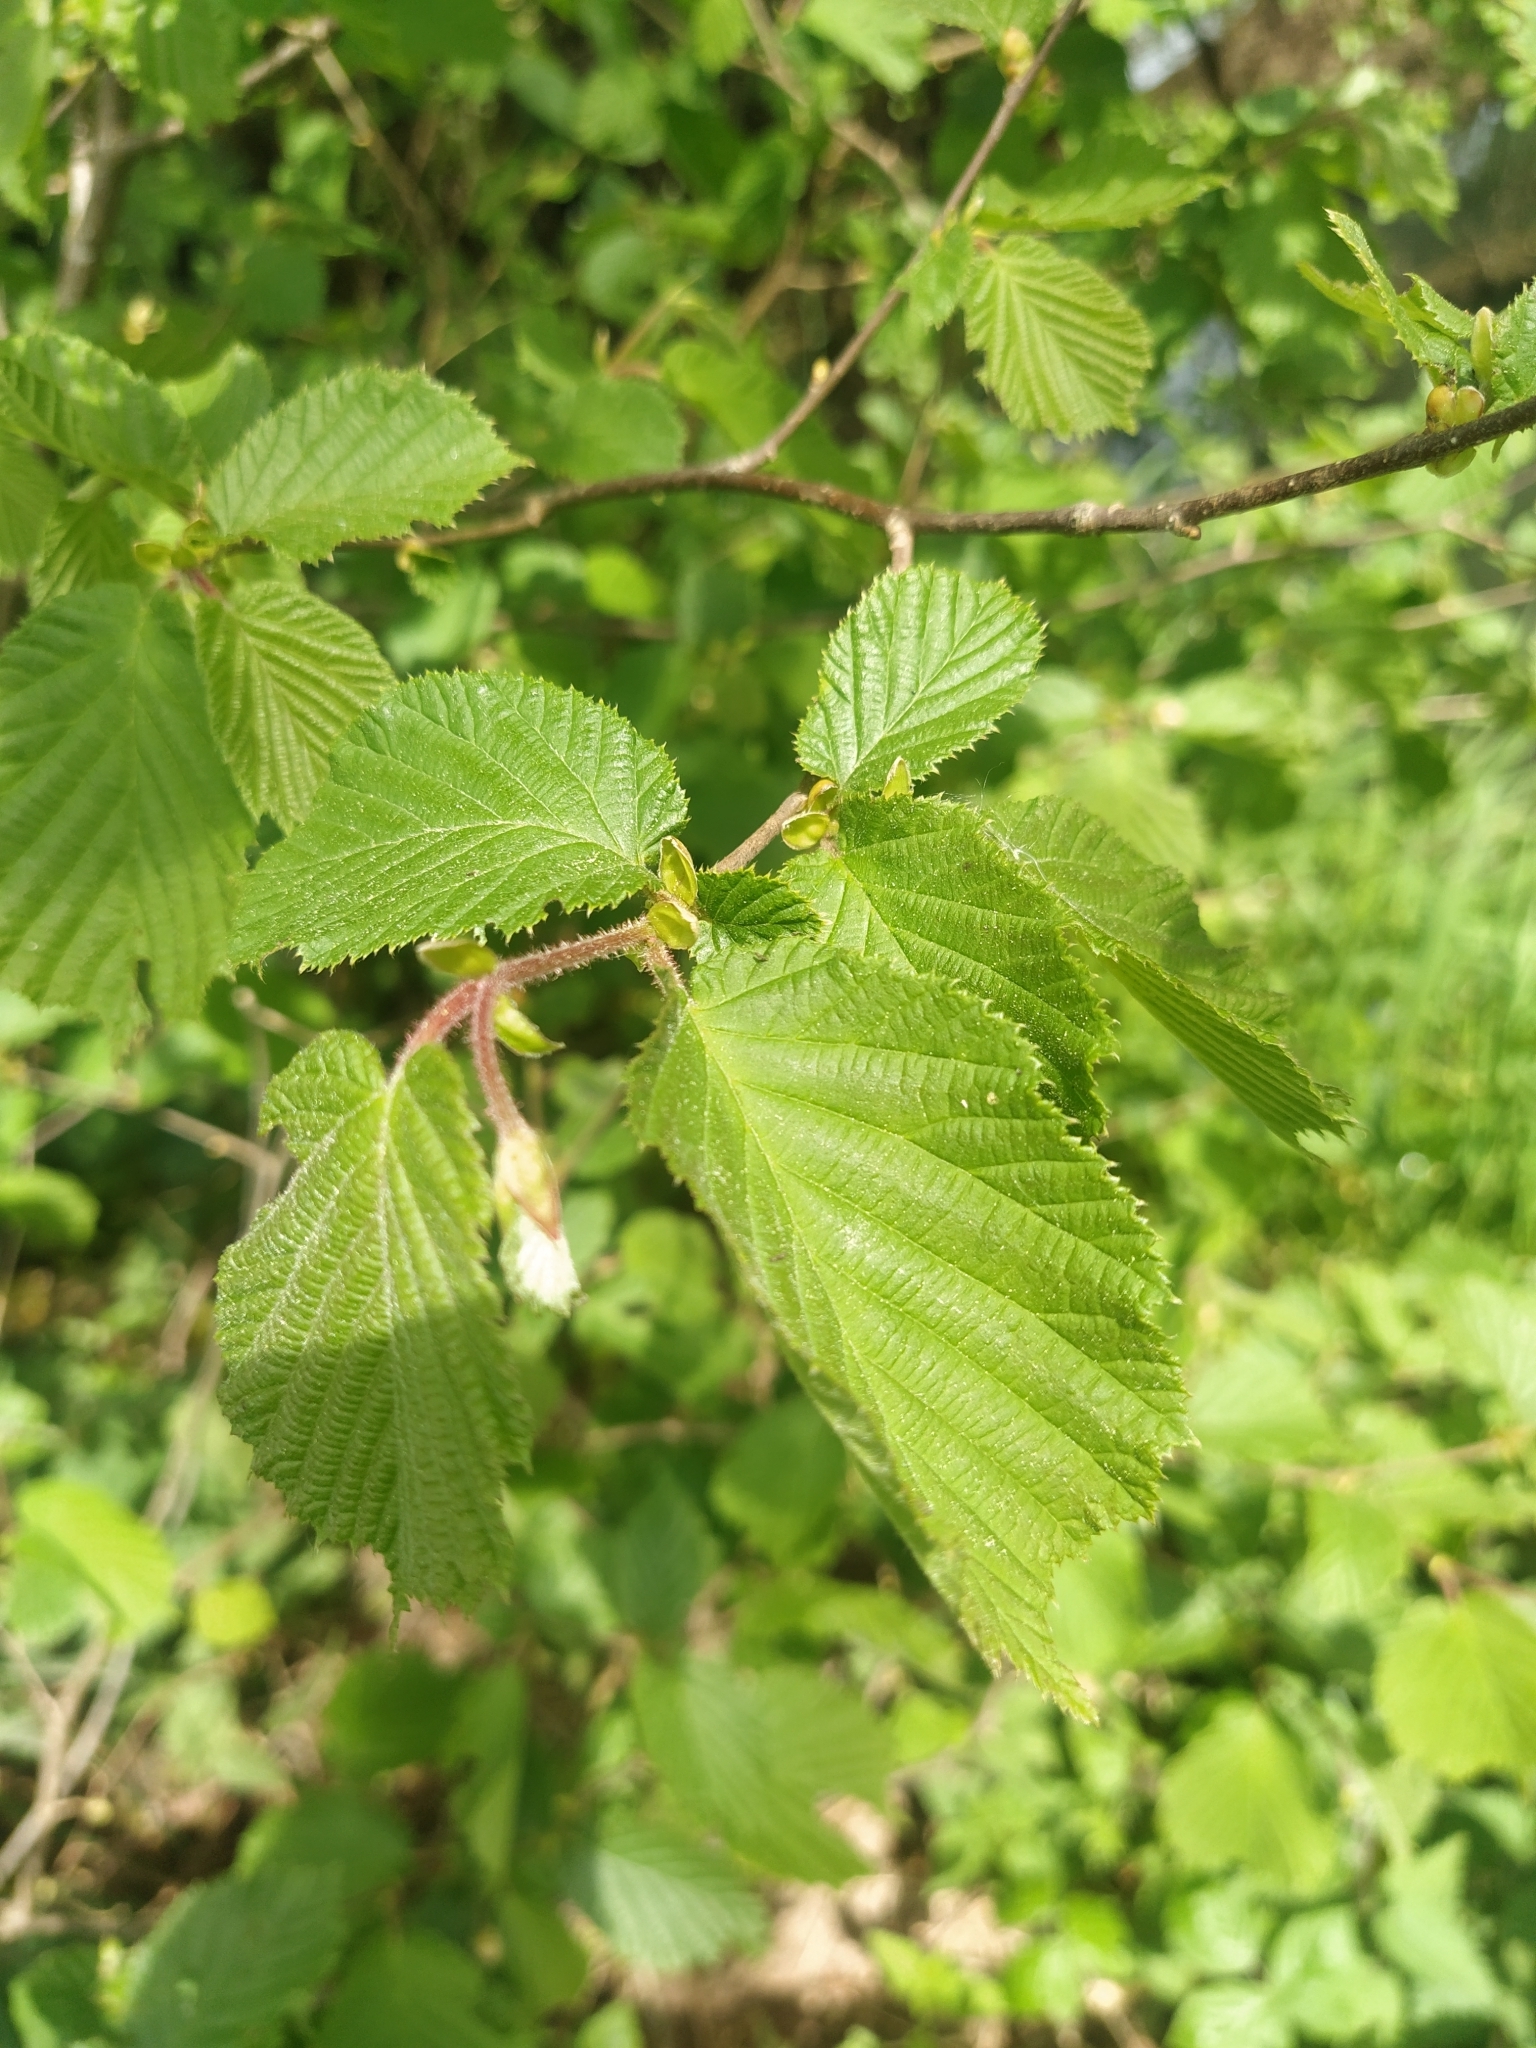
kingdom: Plantae
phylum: Tracheophyta
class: Magnoliopsida
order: Fagales
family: Betulaceae
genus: Corylus
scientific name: Corylus avellana
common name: European hazel
